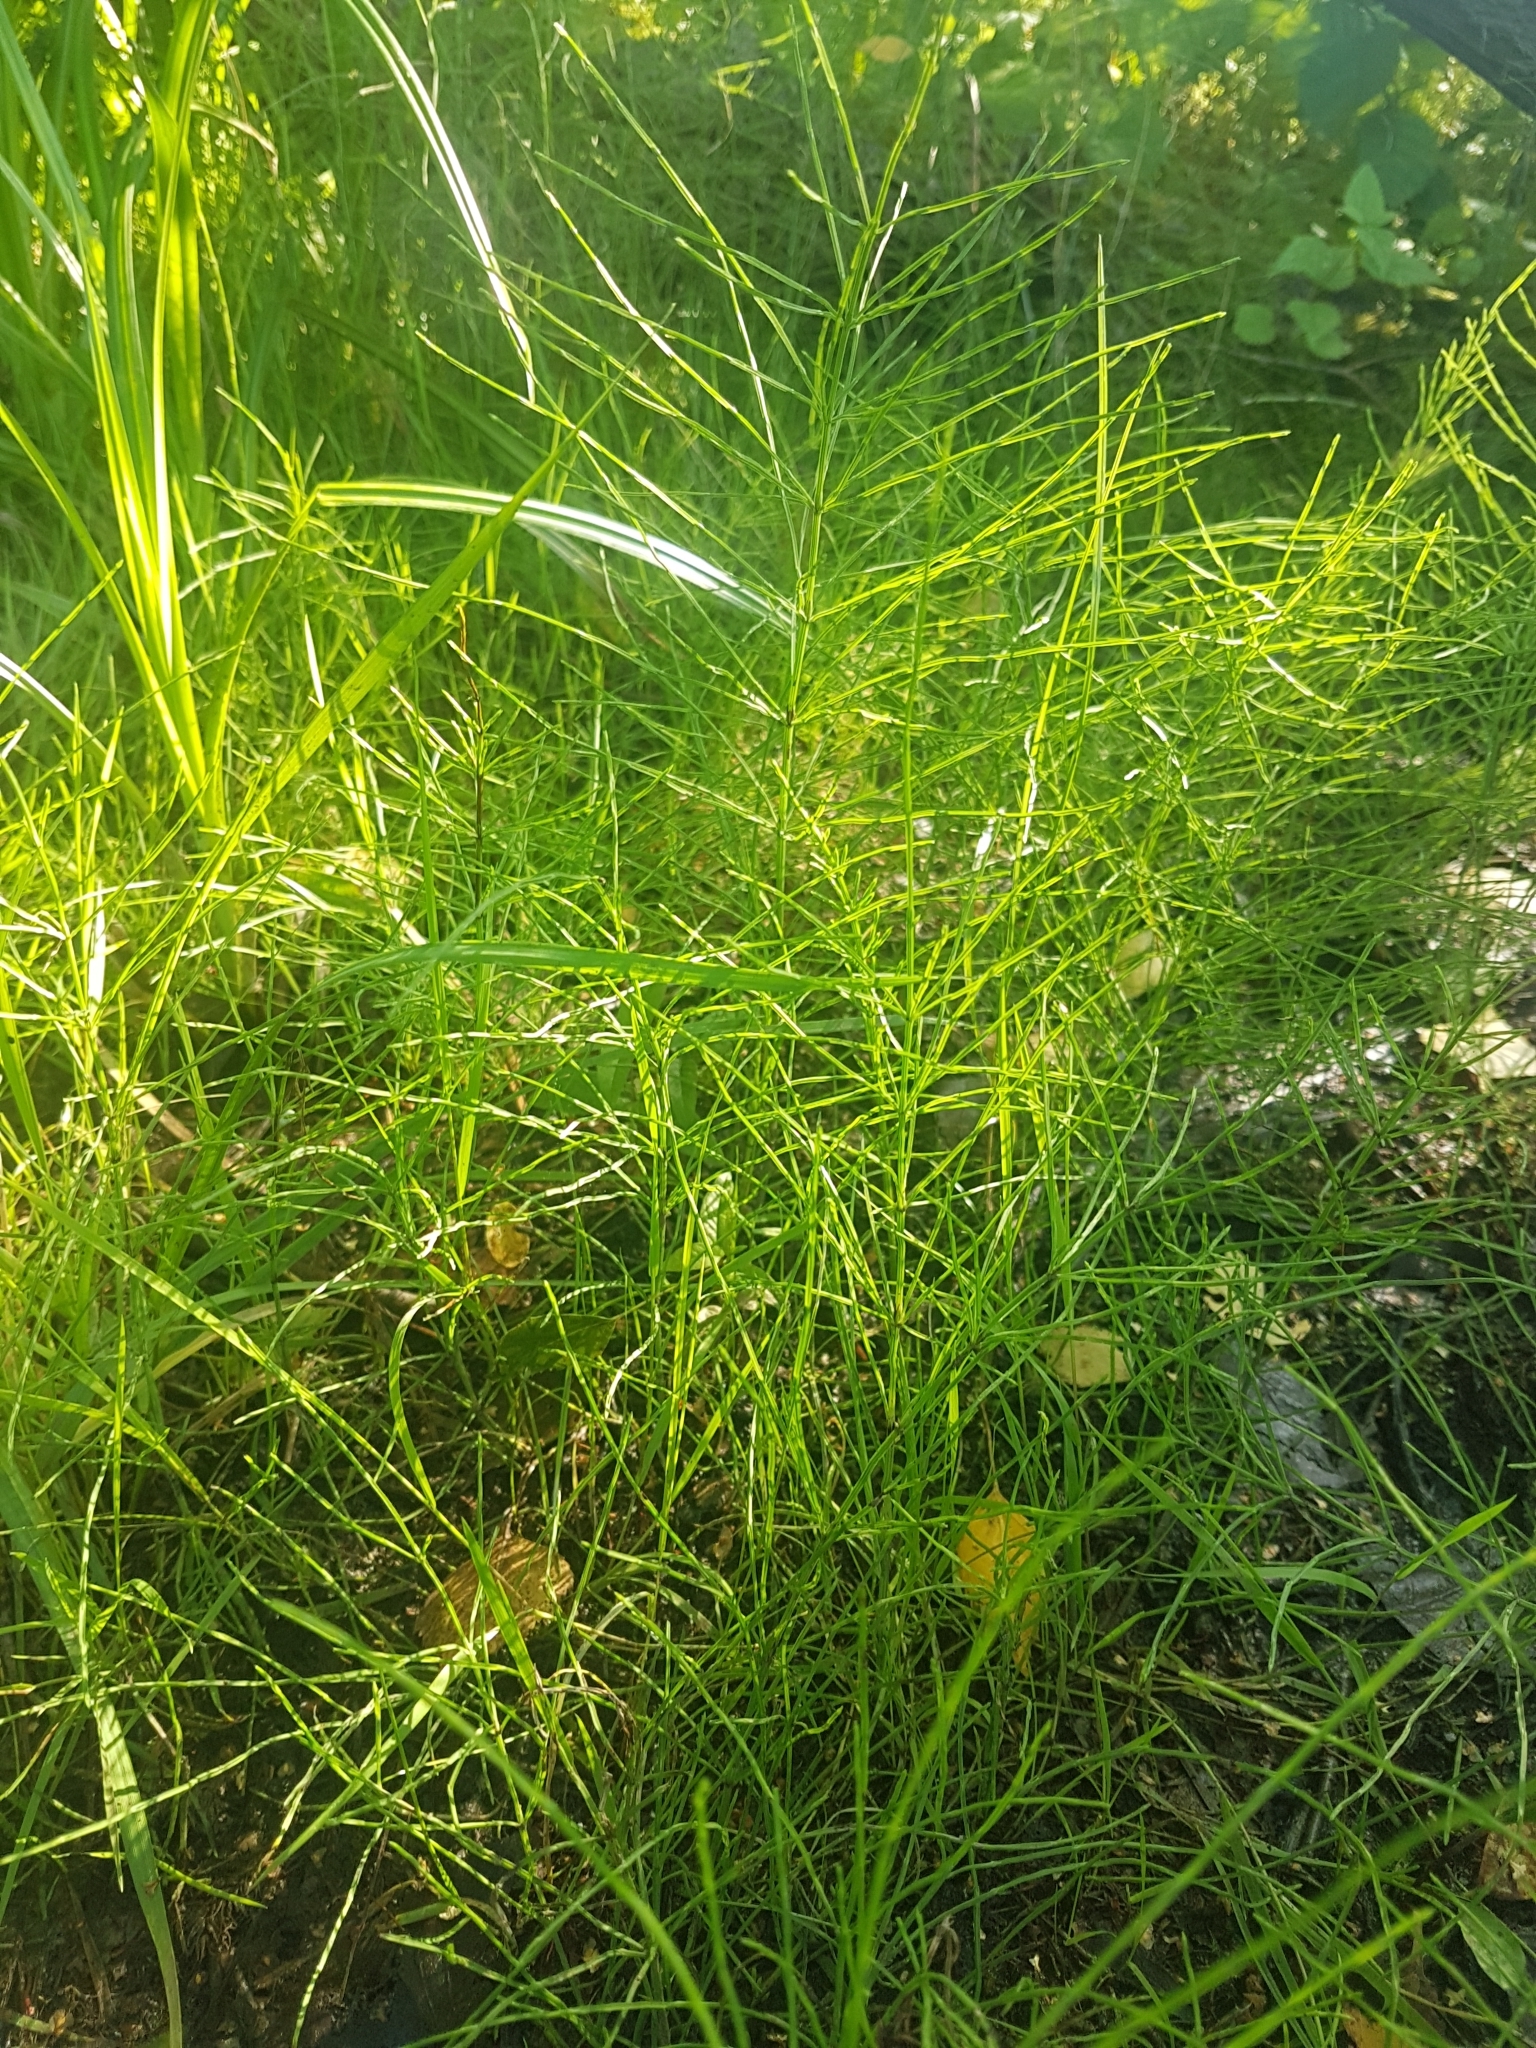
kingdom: Plantae
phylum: Tracheophyta
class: Polypodiopsida
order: Equisetales
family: Equisetaceae
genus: Equisetum
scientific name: Equisetum arvense
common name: Field horsetail
